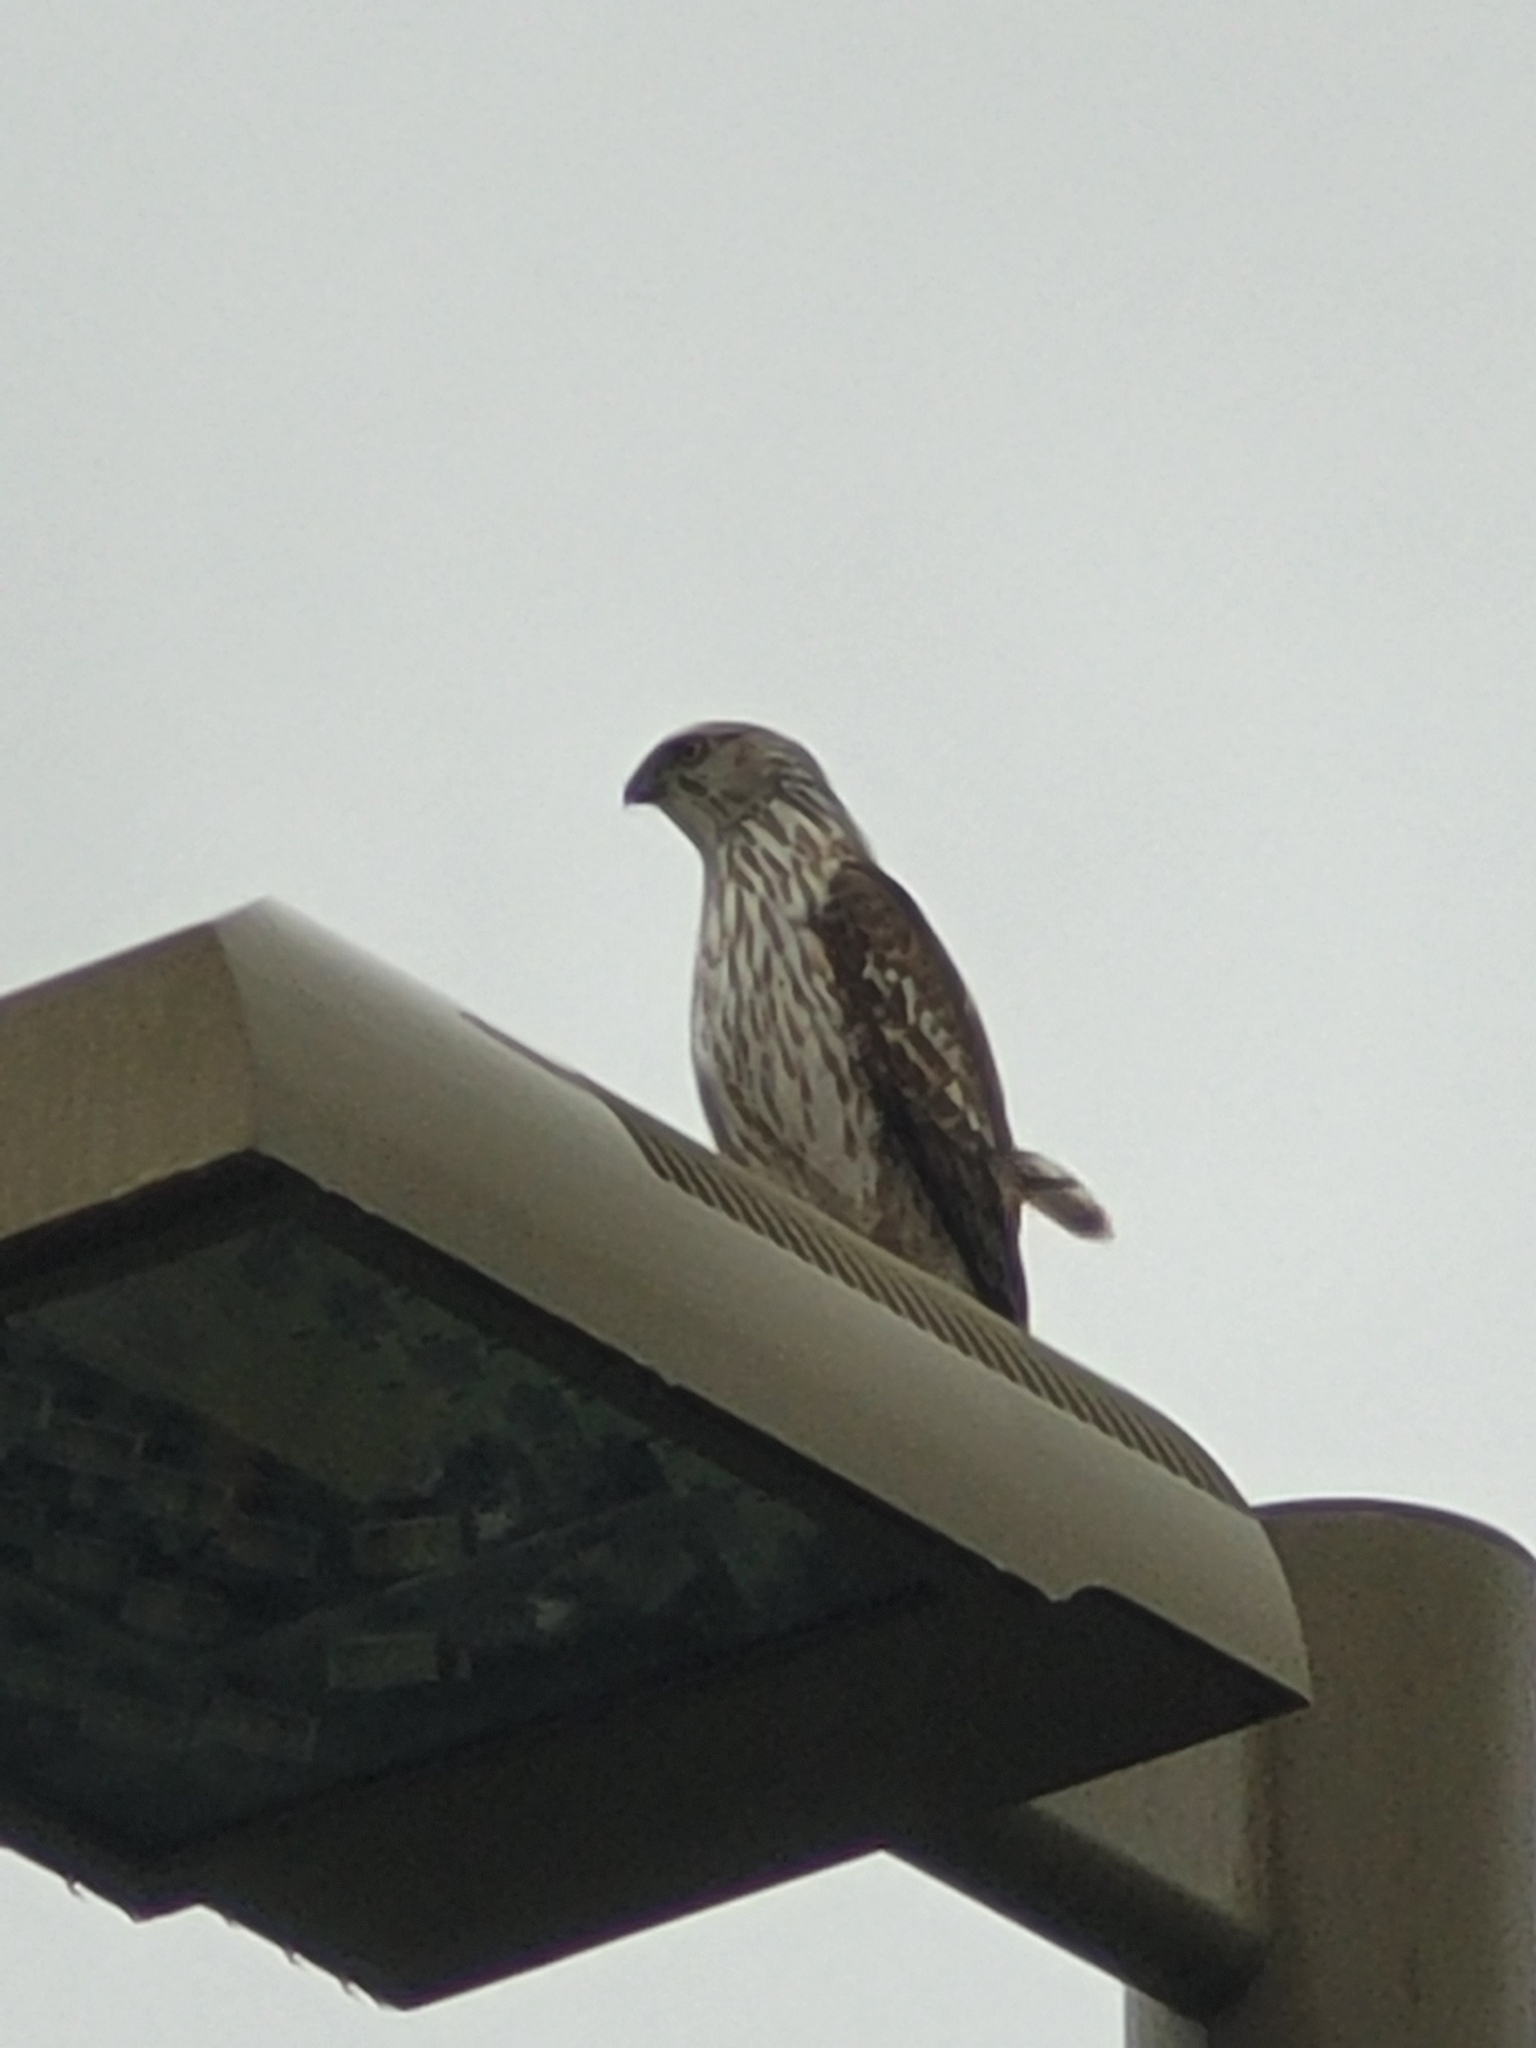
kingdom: Animalia
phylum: Chordata
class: Aves
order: Accipitriformes
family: Accipitridae
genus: Accipiter
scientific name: Accipiter cooperii
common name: Cooper's hawk
